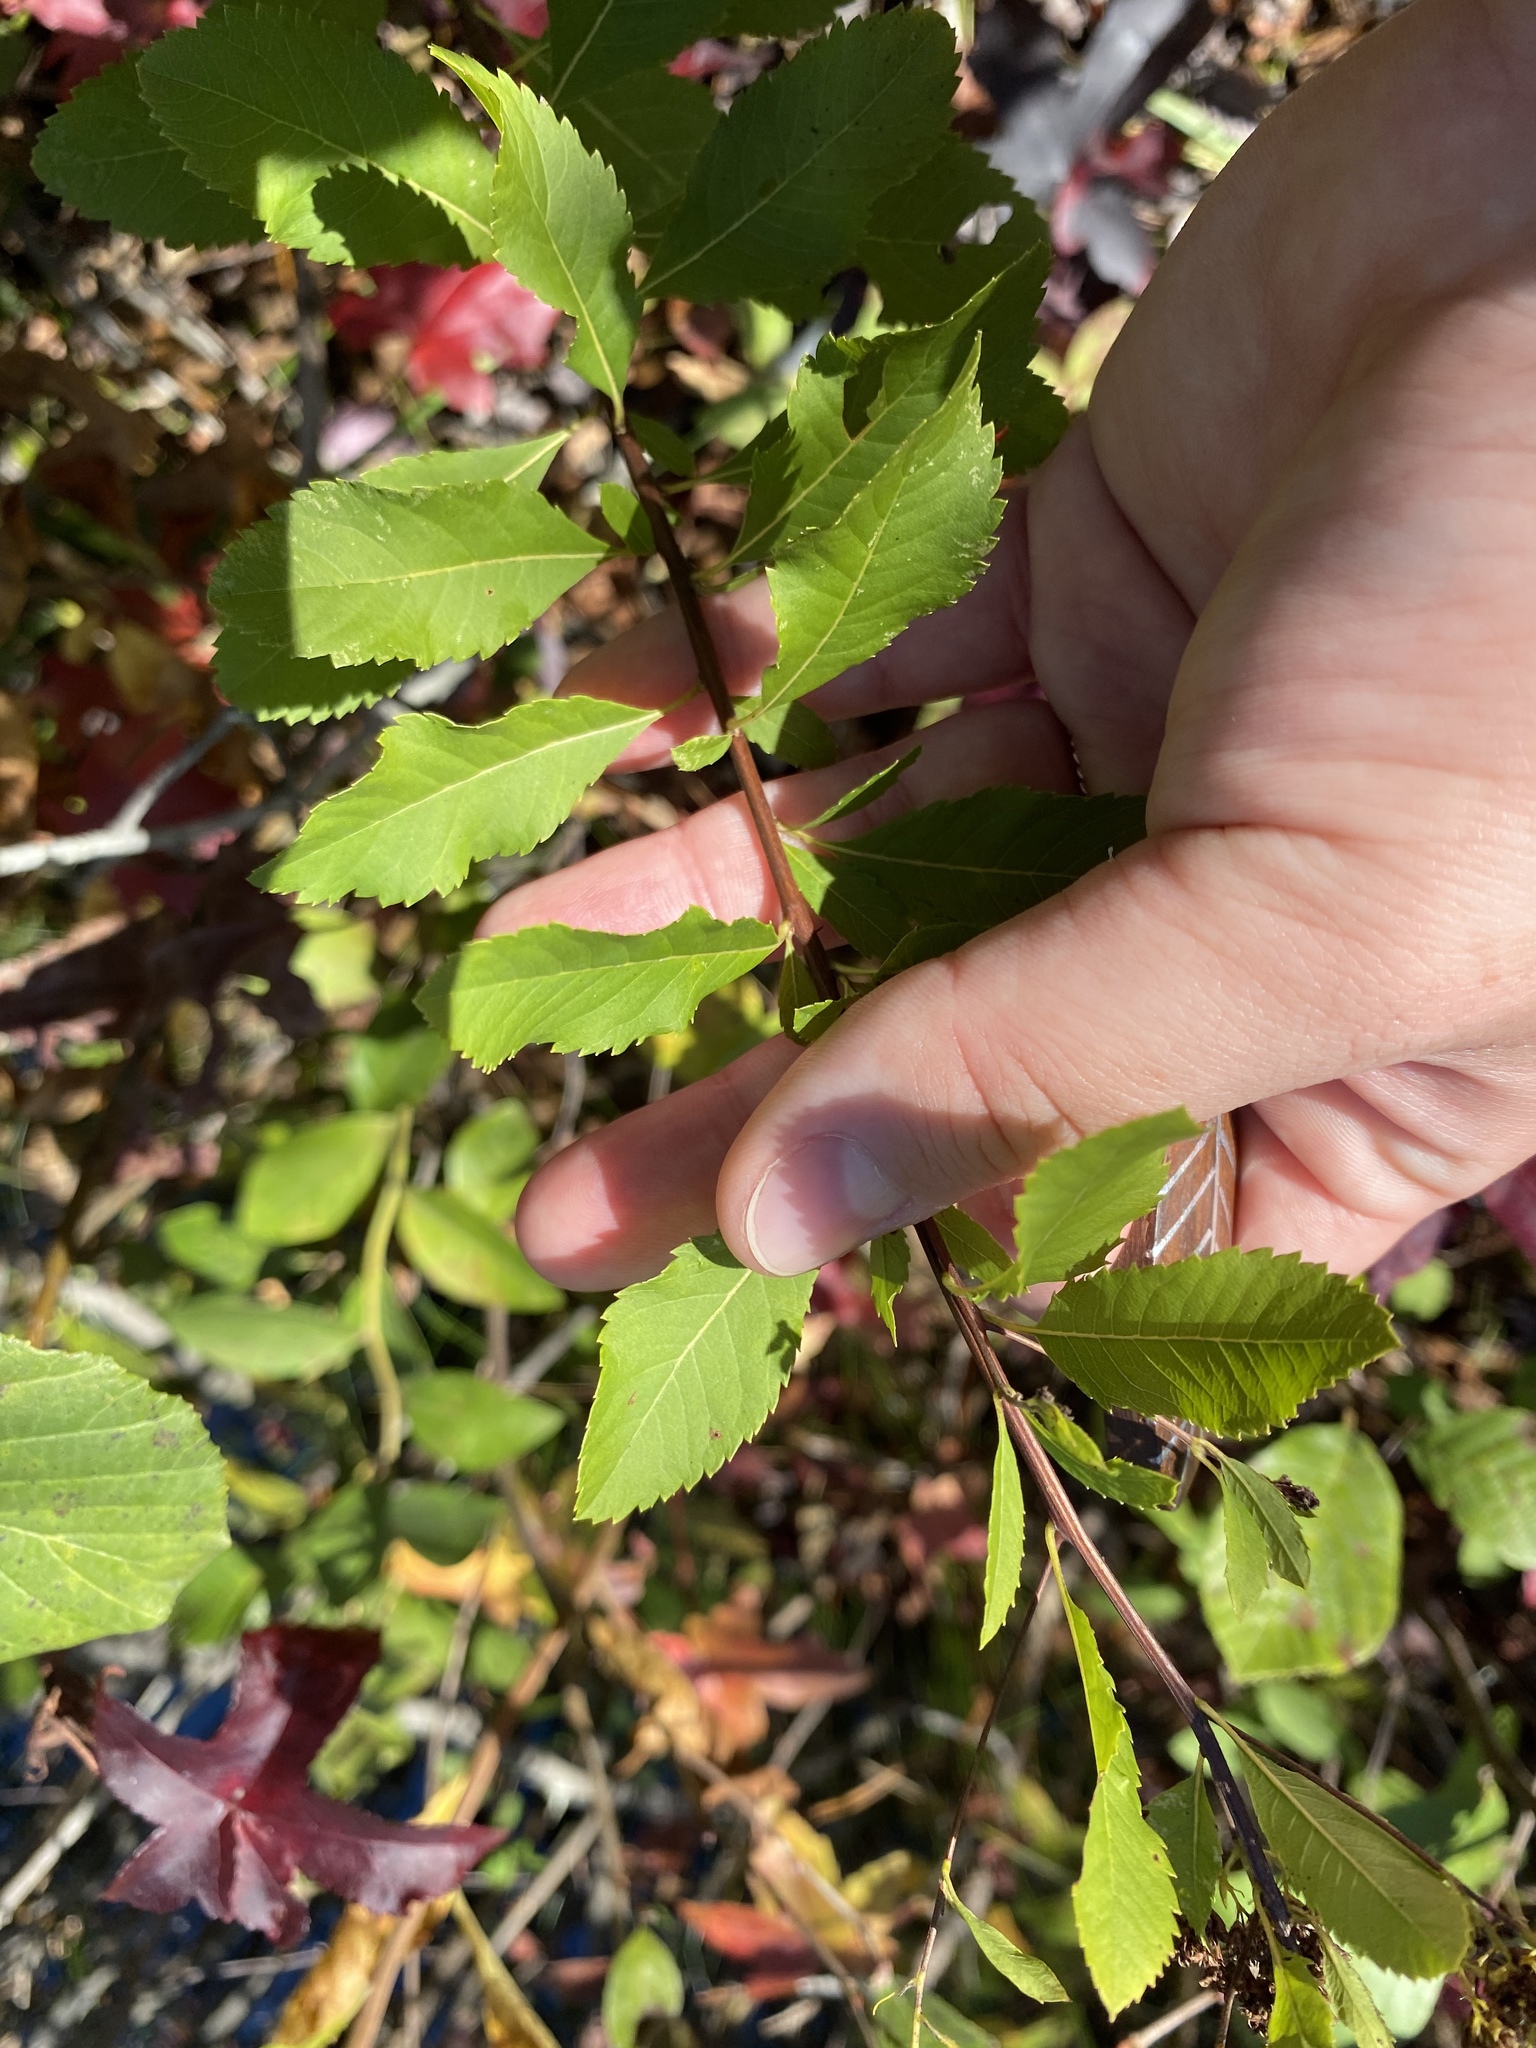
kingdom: Plantae
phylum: Tracheophyta
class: Magnoliopsida
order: Rosales
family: Rosaceae
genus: Spiraea
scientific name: Spiraea alba
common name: Pale bridewort
